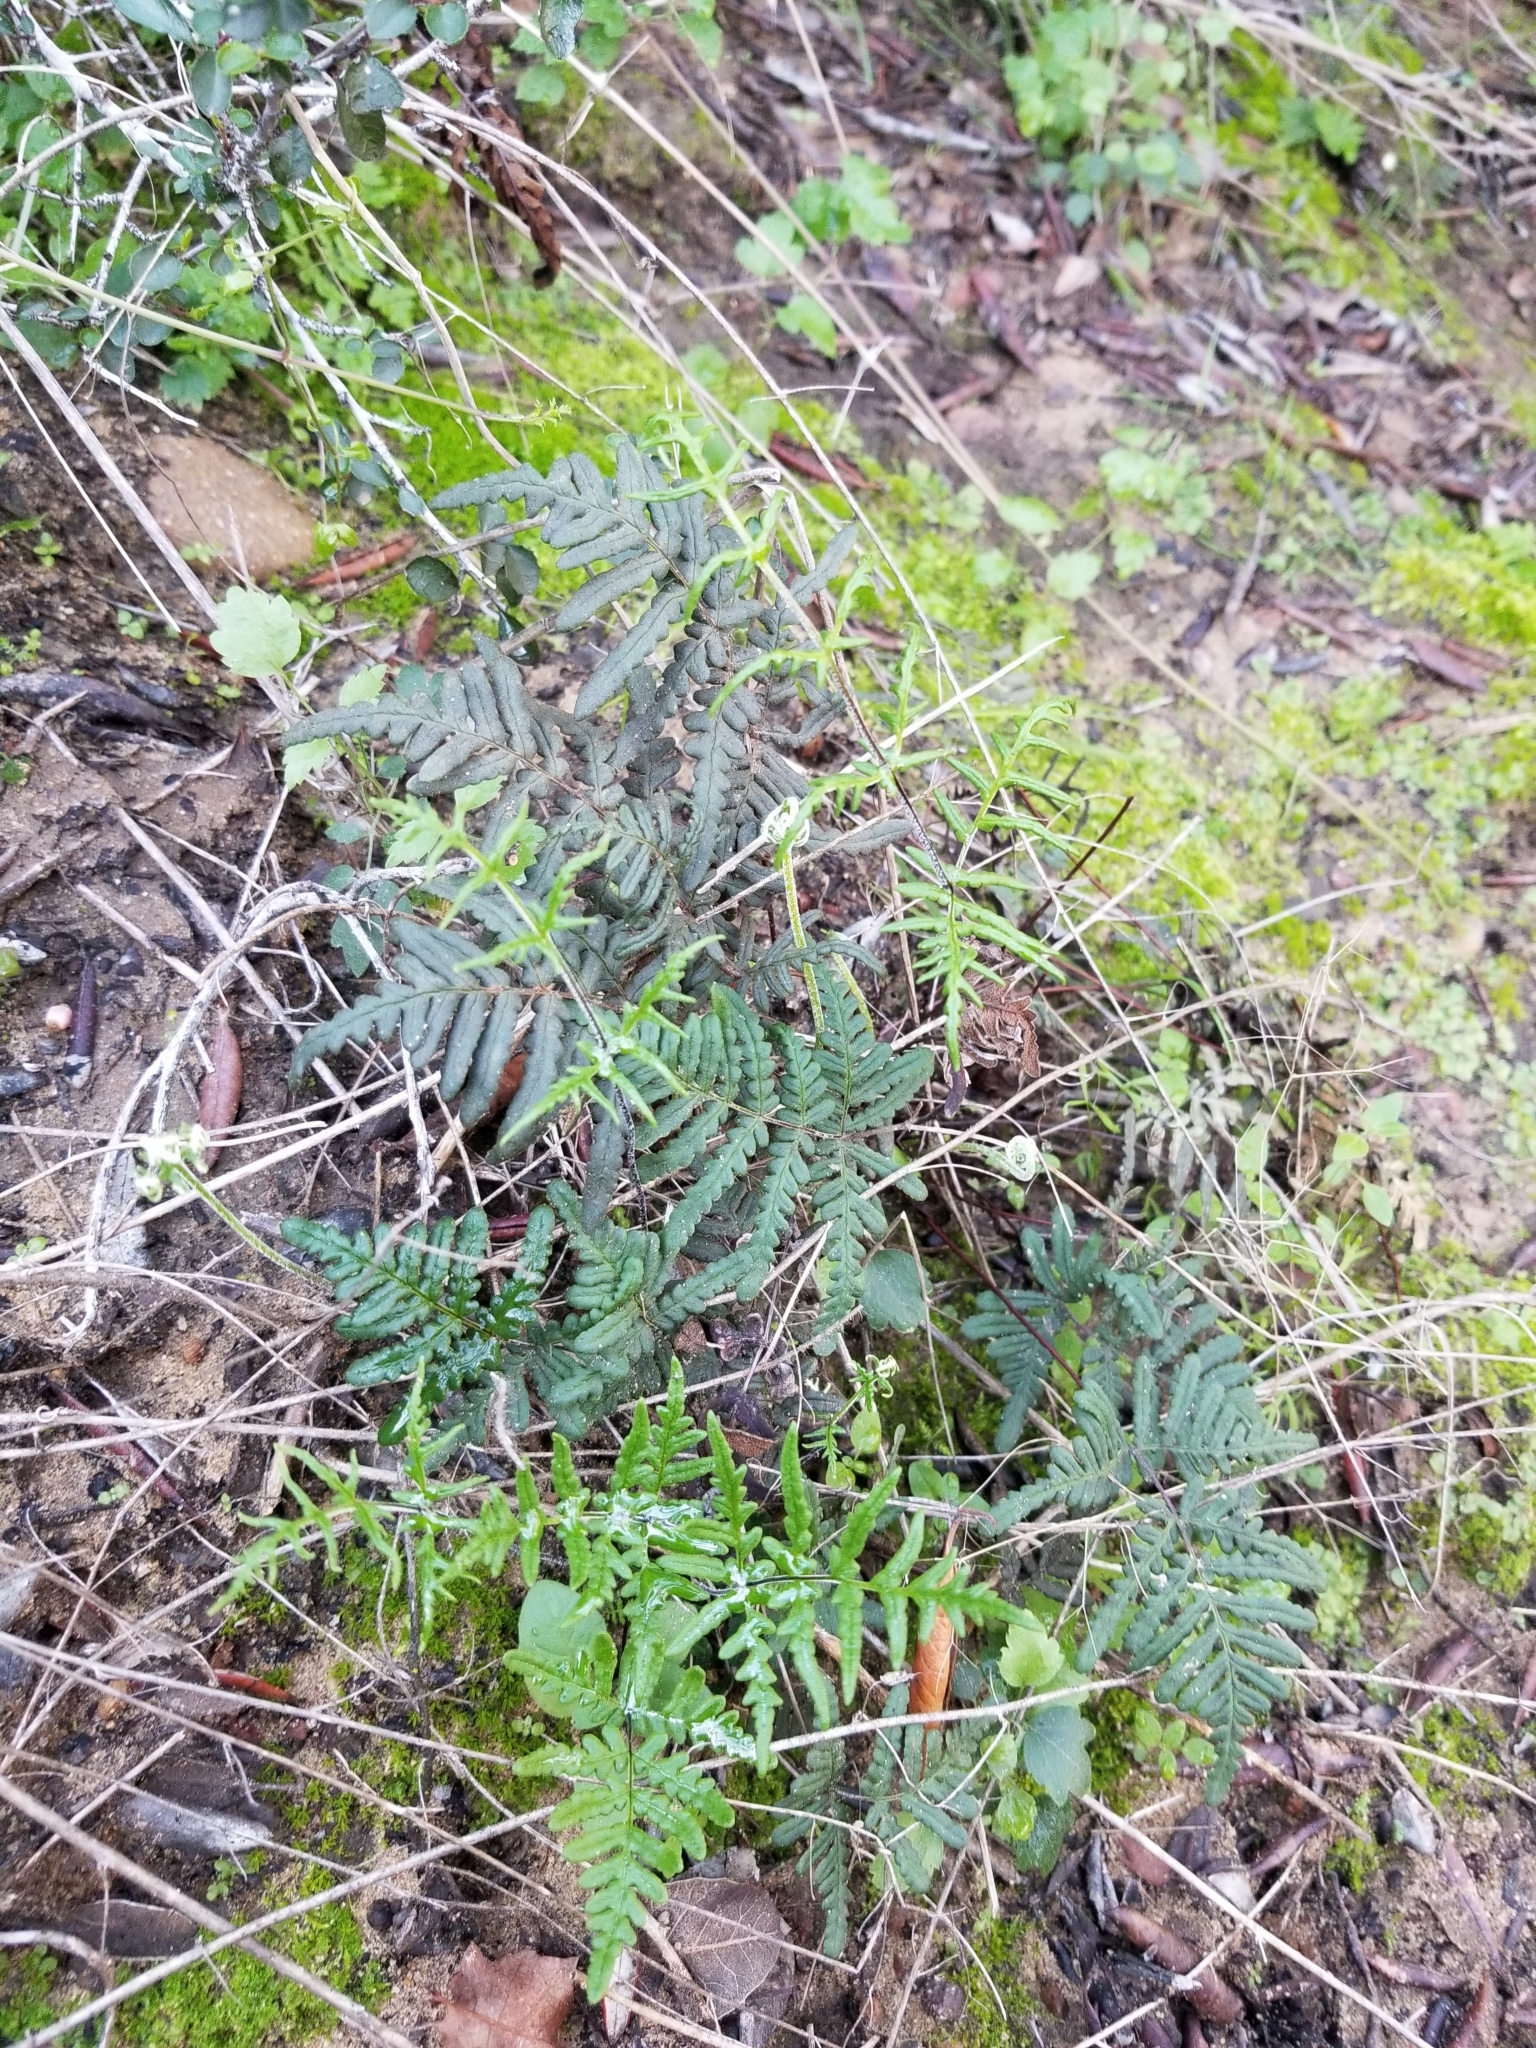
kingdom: Plantae
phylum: Tracheophyta
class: Polypodiopsida
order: Polypodiales
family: Pteridaceae
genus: Pentagramma
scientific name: Pentagramma viscosa
